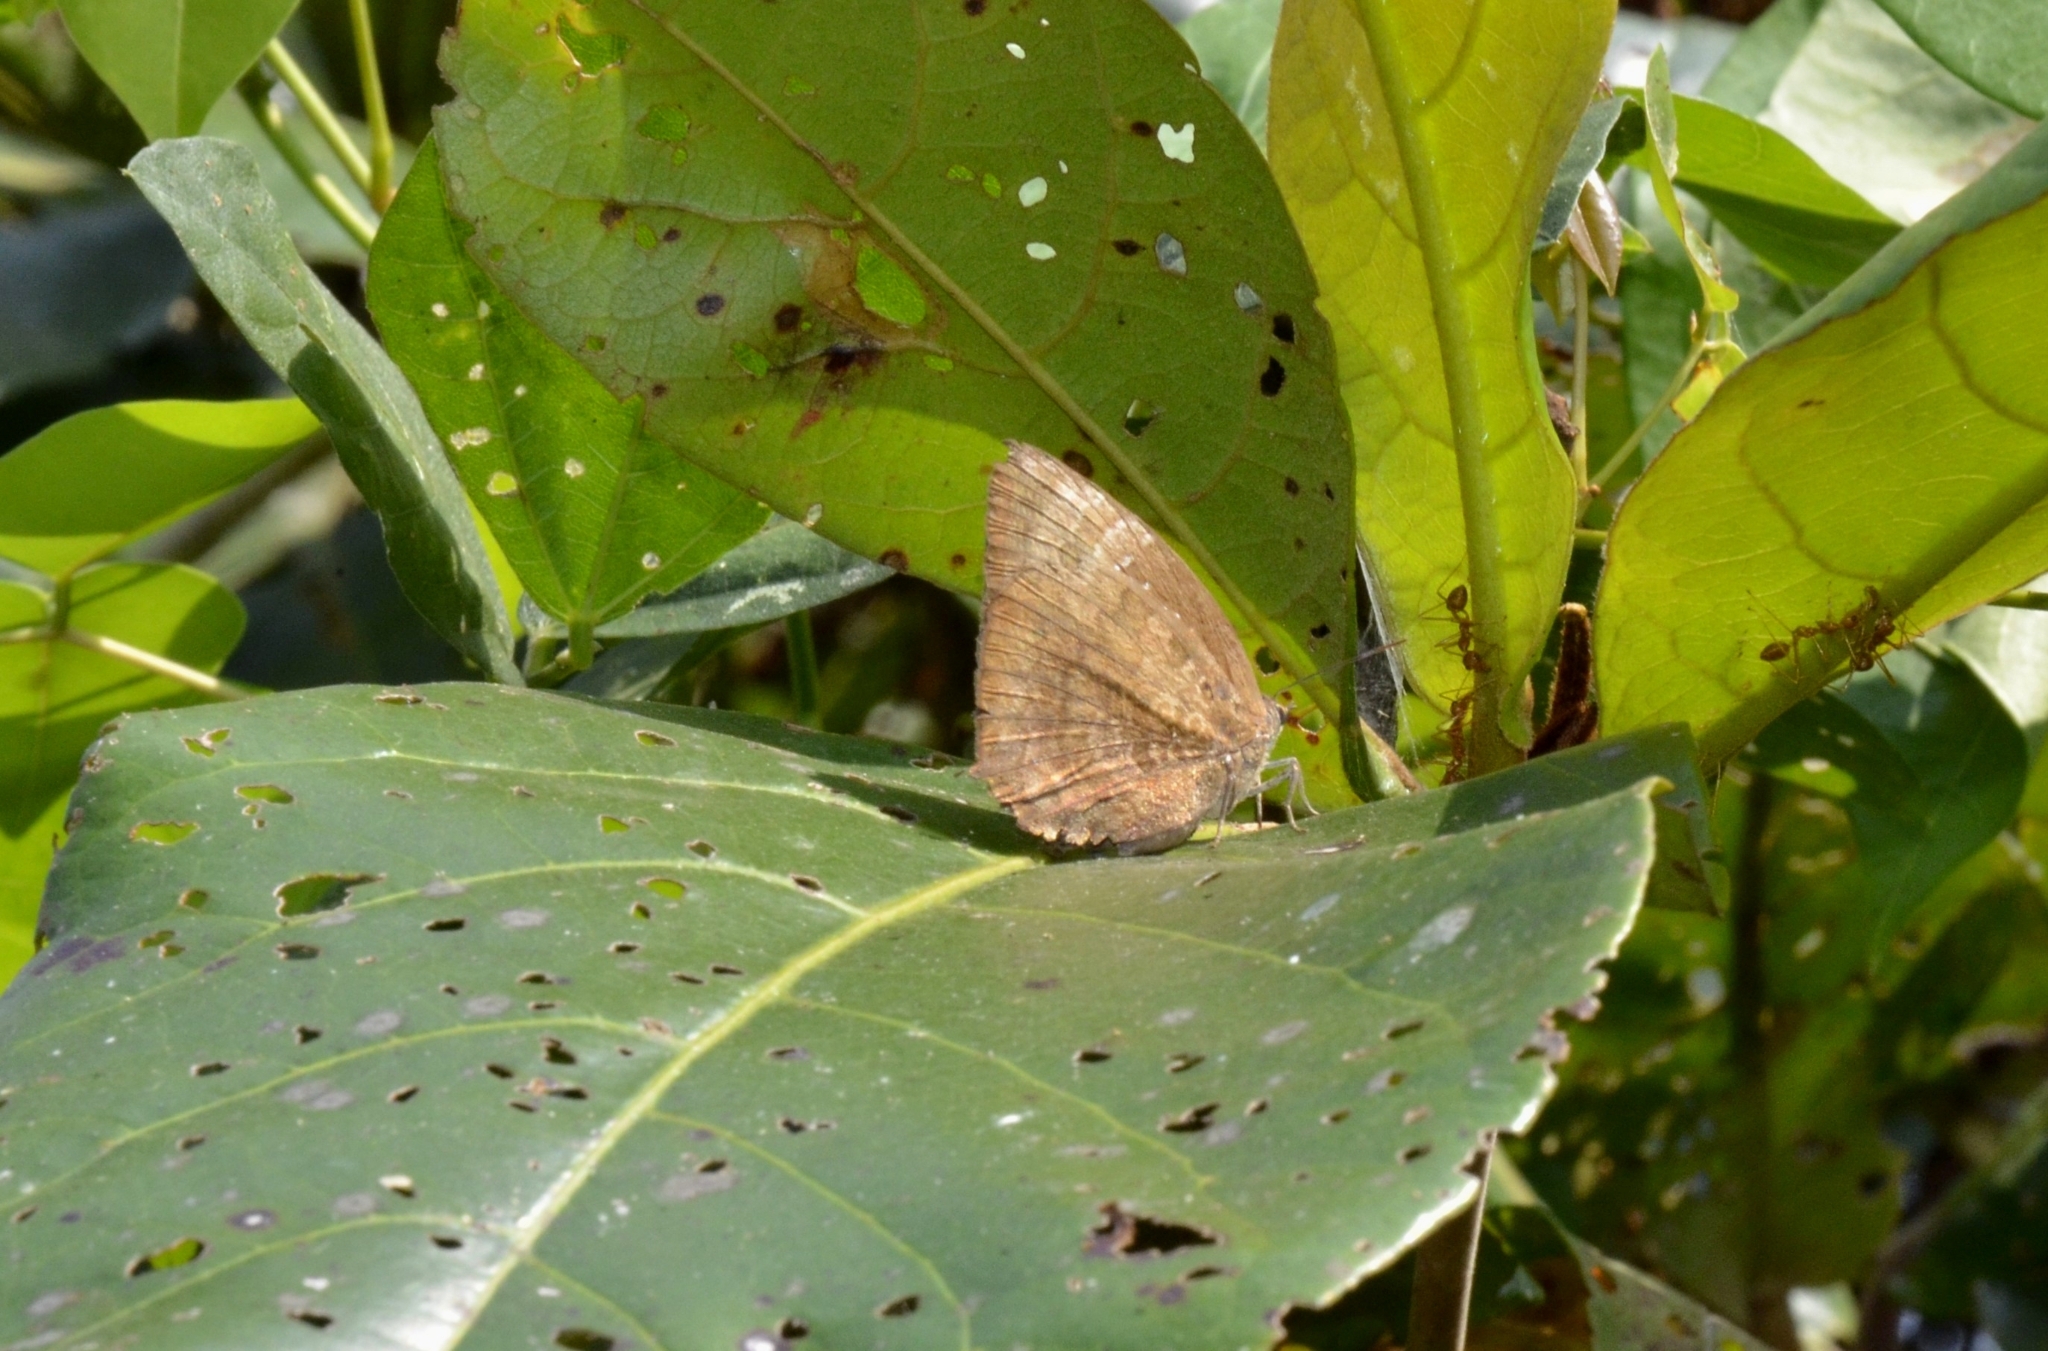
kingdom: Animalia
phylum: Arthropoda
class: Insecta
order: Lepidoptera
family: Lycaenidae
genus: Arhopala
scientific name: Arhopala centaurus
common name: Dull oak-blue
